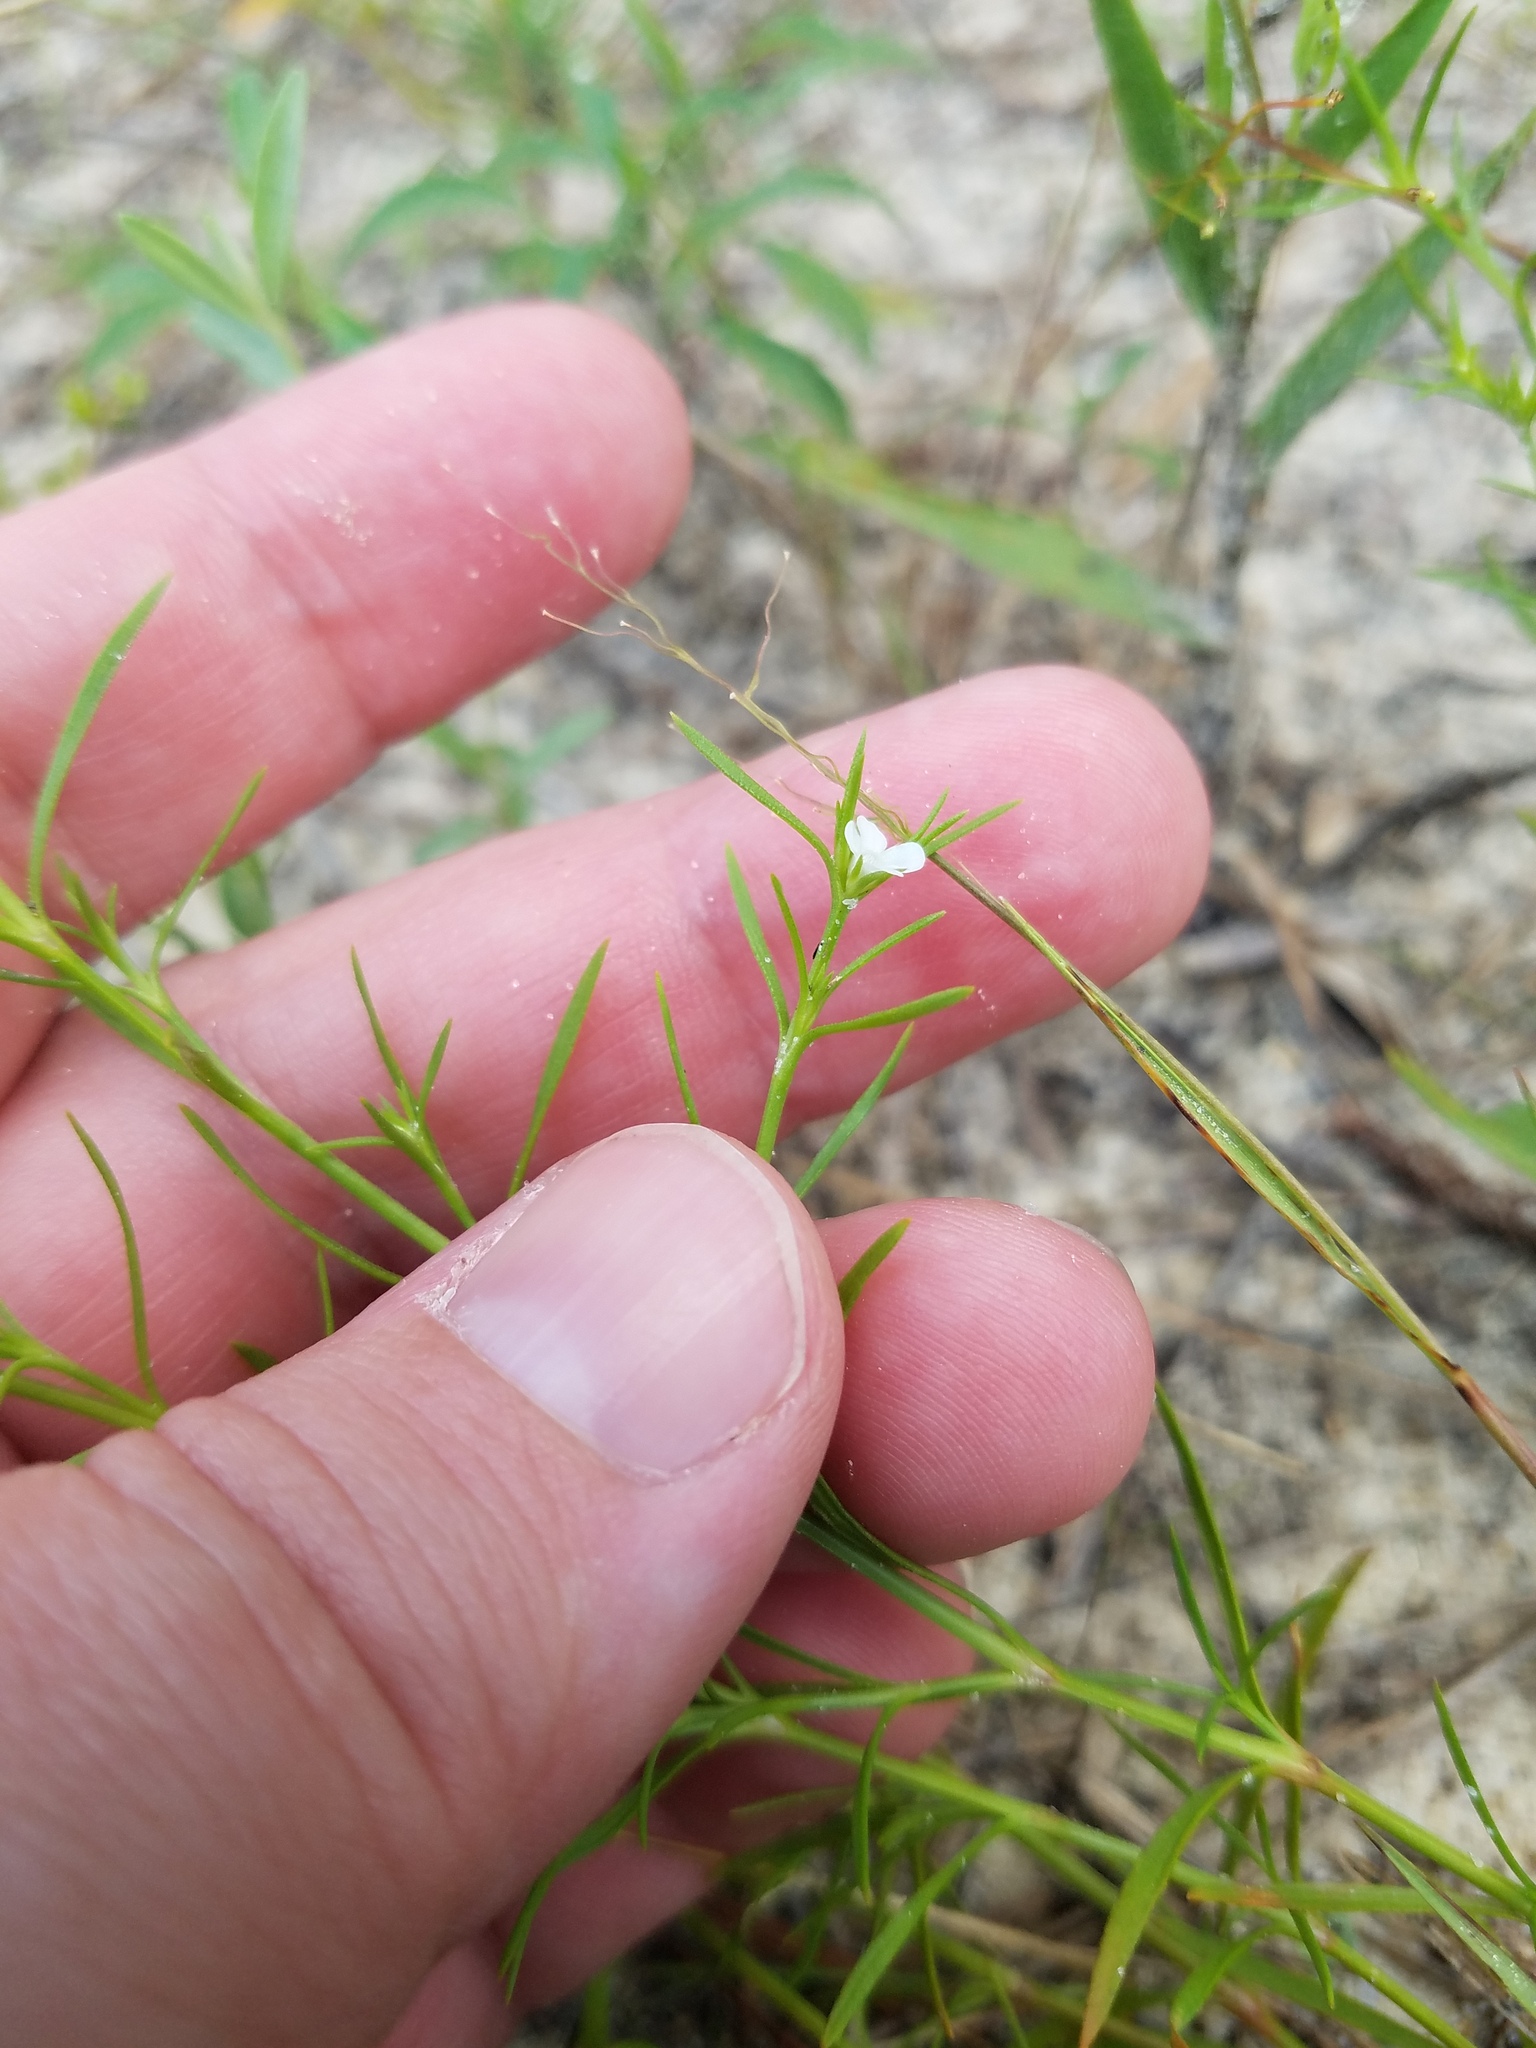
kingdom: Plantae
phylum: Tracheophyta
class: Magnoliopsida
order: Lamiales
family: Tetrachondraceae
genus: Polypremum
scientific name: Polypremum procumbens
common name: Juniper-leaf
